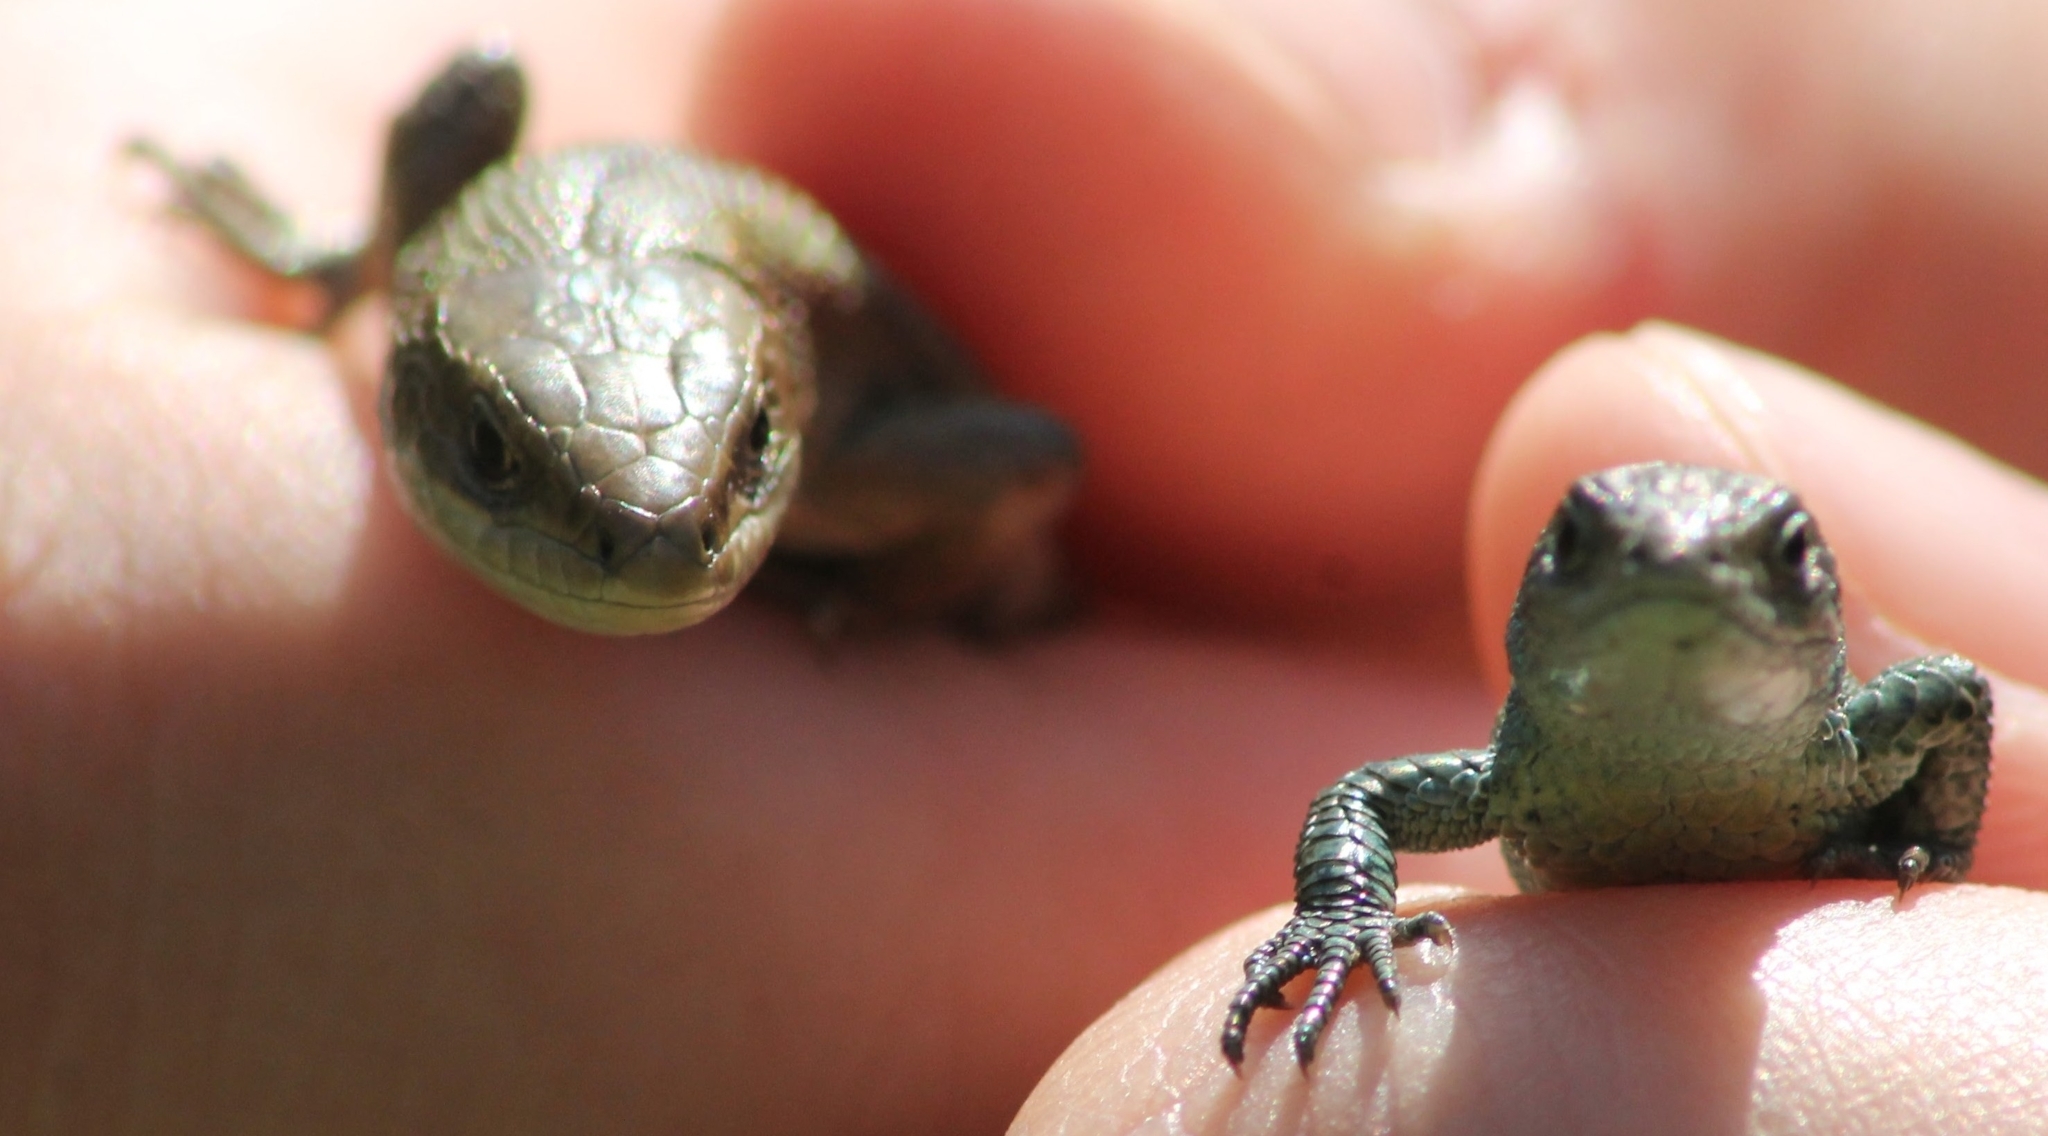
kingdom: Animalia
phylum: Chordata
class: Squamata
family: Lacertidae
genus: Zootoca
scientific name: Zootoca vivipara
